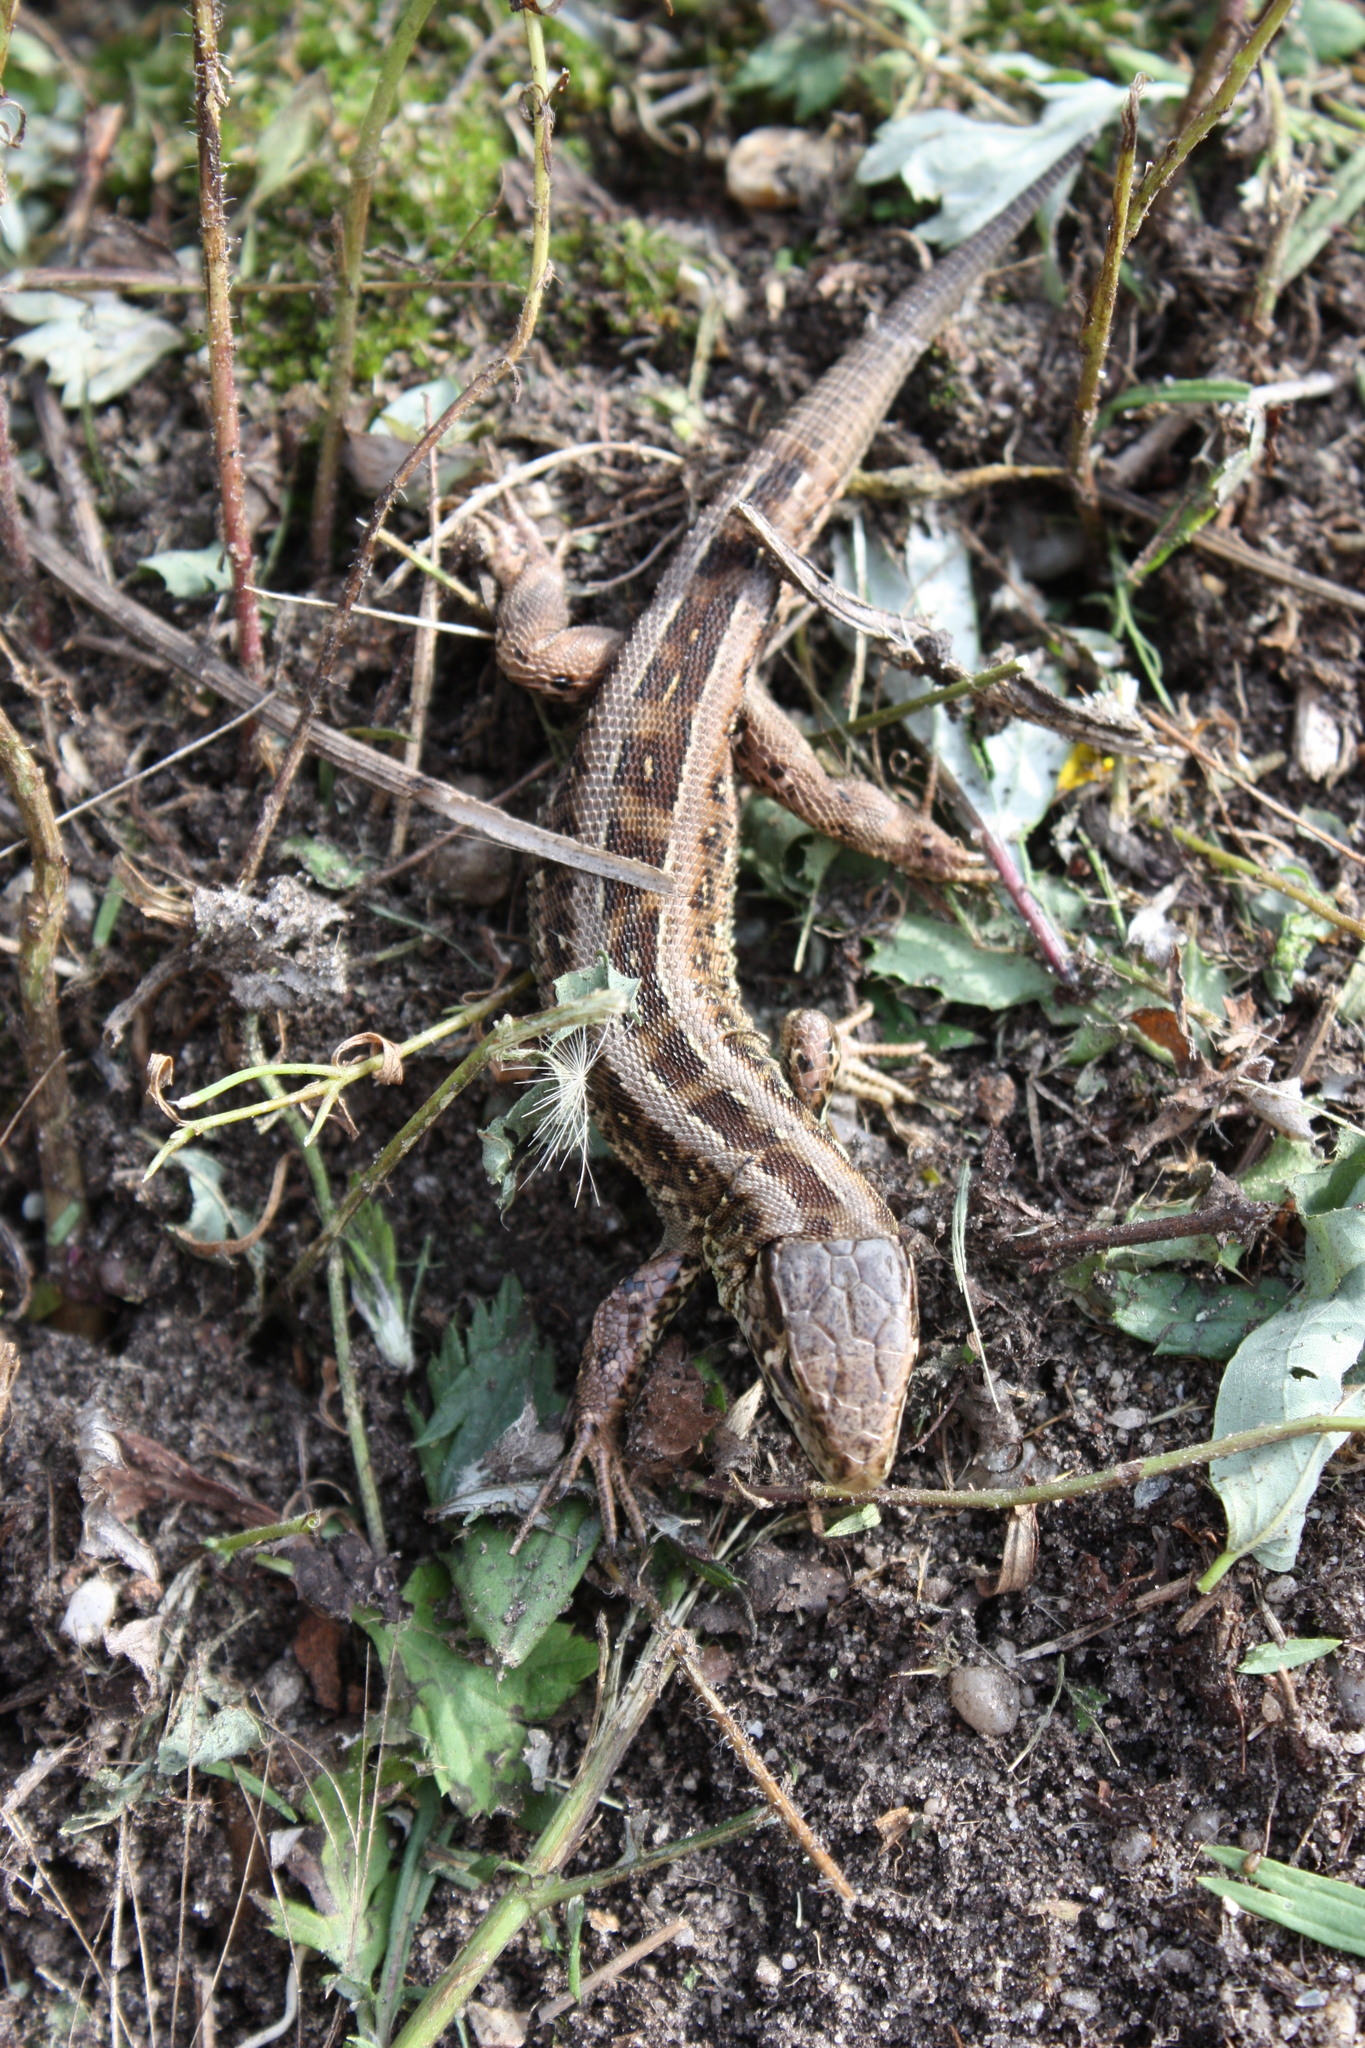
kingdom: Animalia
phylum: Chordata
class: Squamata
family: Lacertidae
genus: Lacerta
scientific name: Lacerta agilis
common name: Sand lizard
